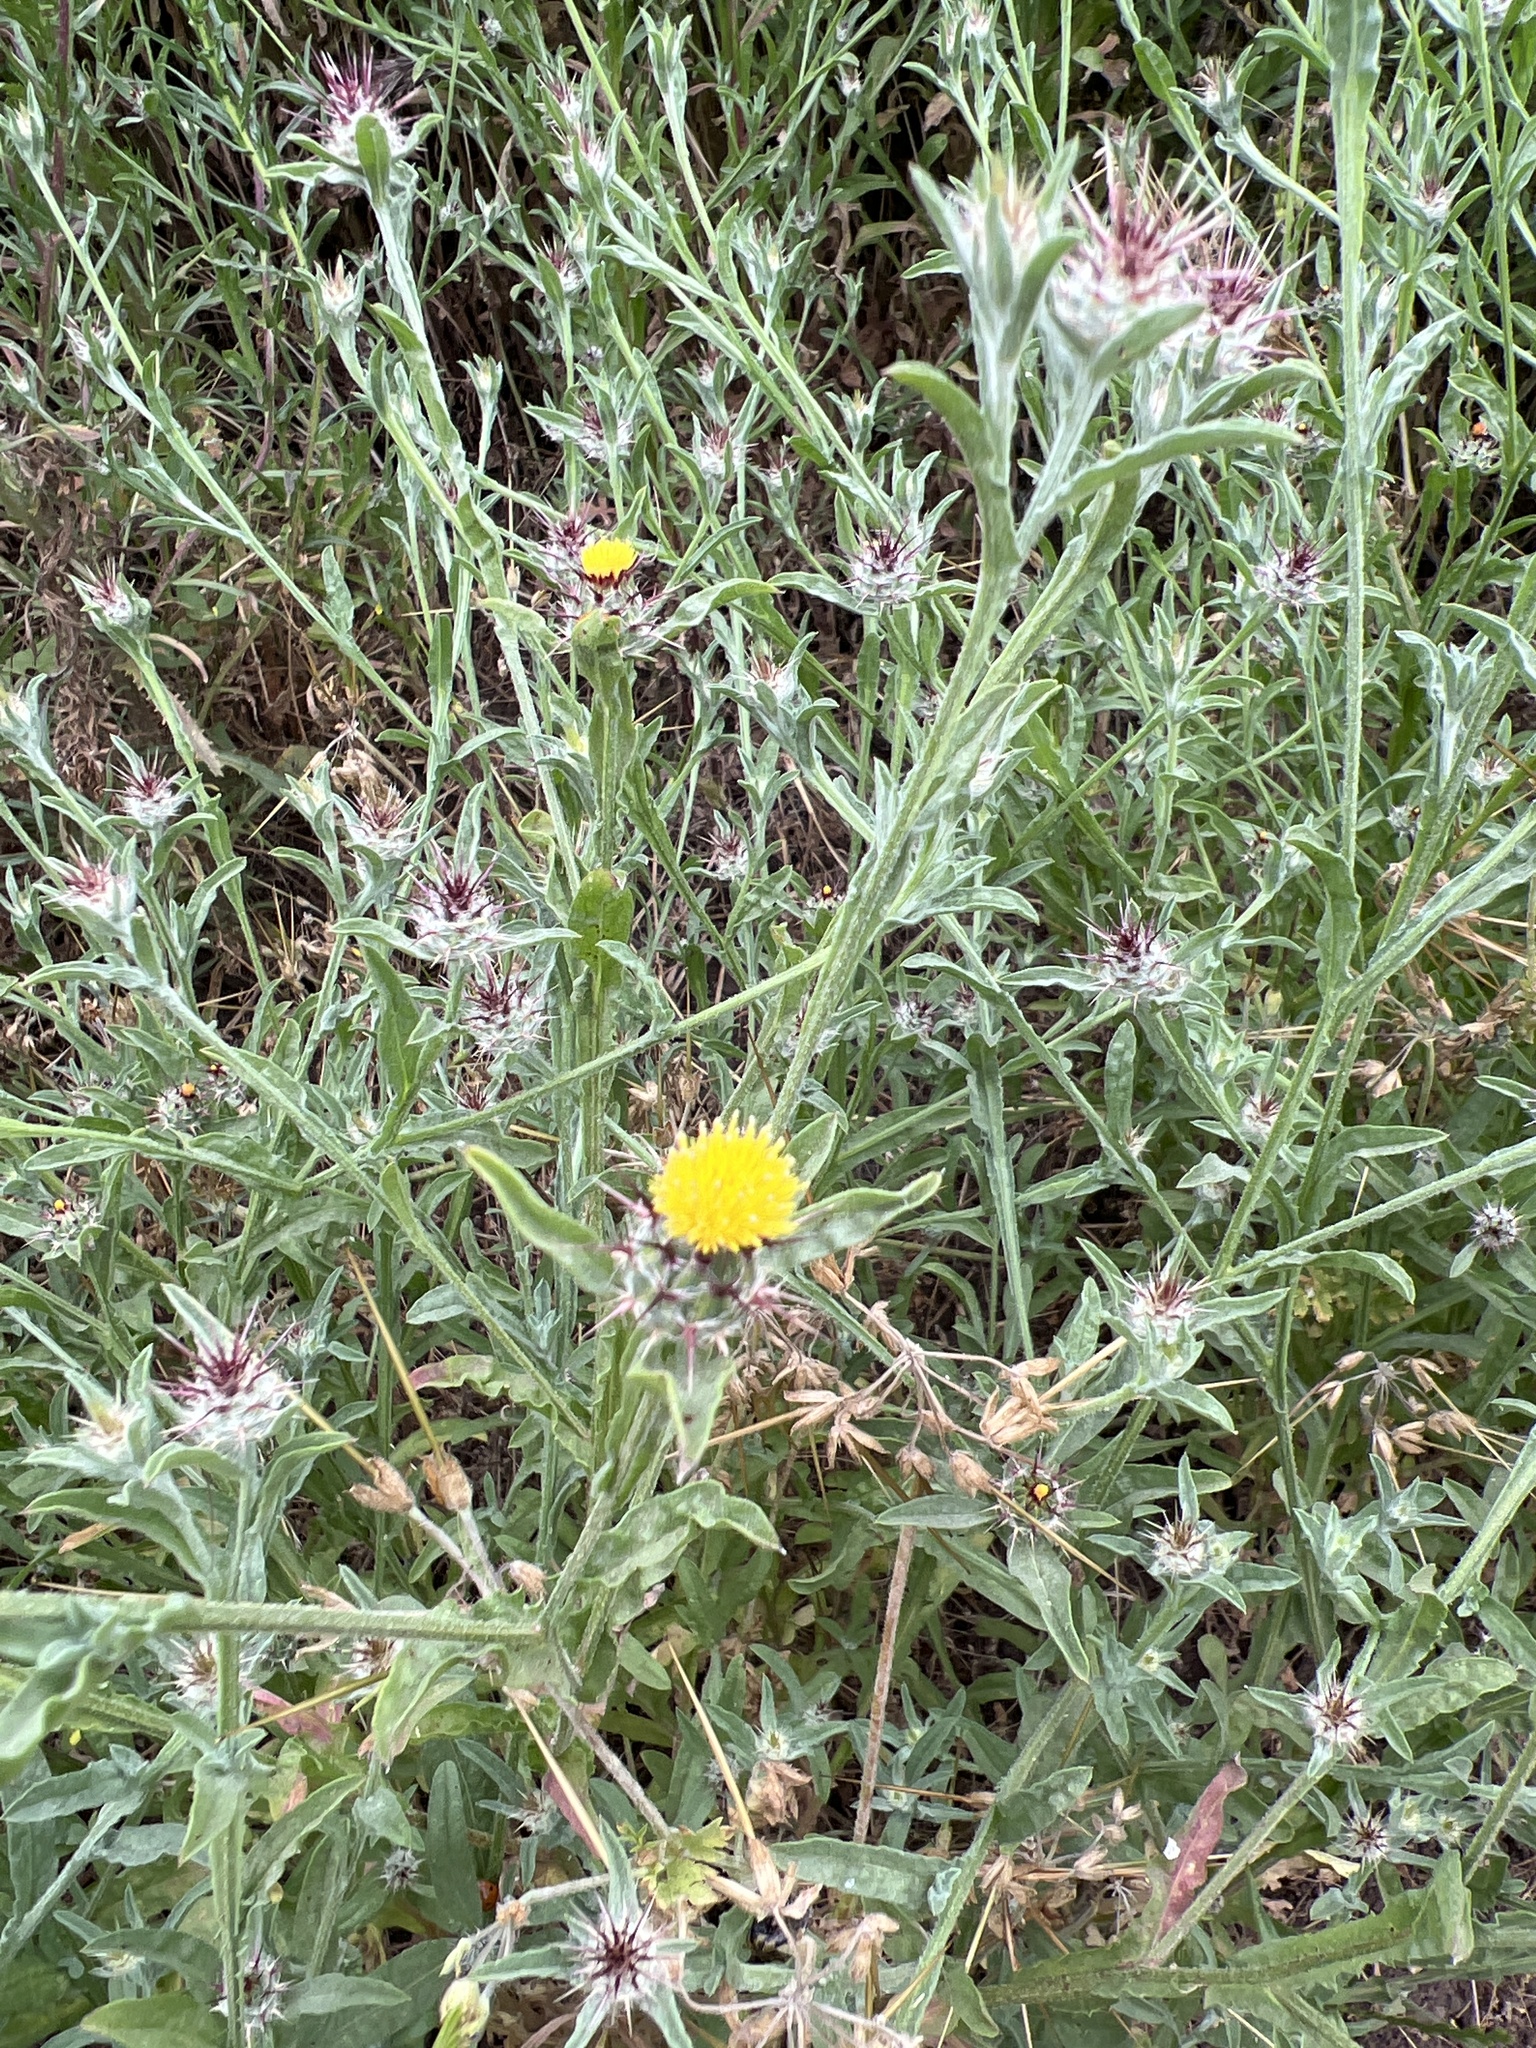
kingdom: Plantae
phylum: Tracheophyta
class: Magnoliopsida
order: Asterales
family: Asteraceae
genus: Centaurea
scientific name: Centaurea melitensis
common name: Maltese star-thistle
